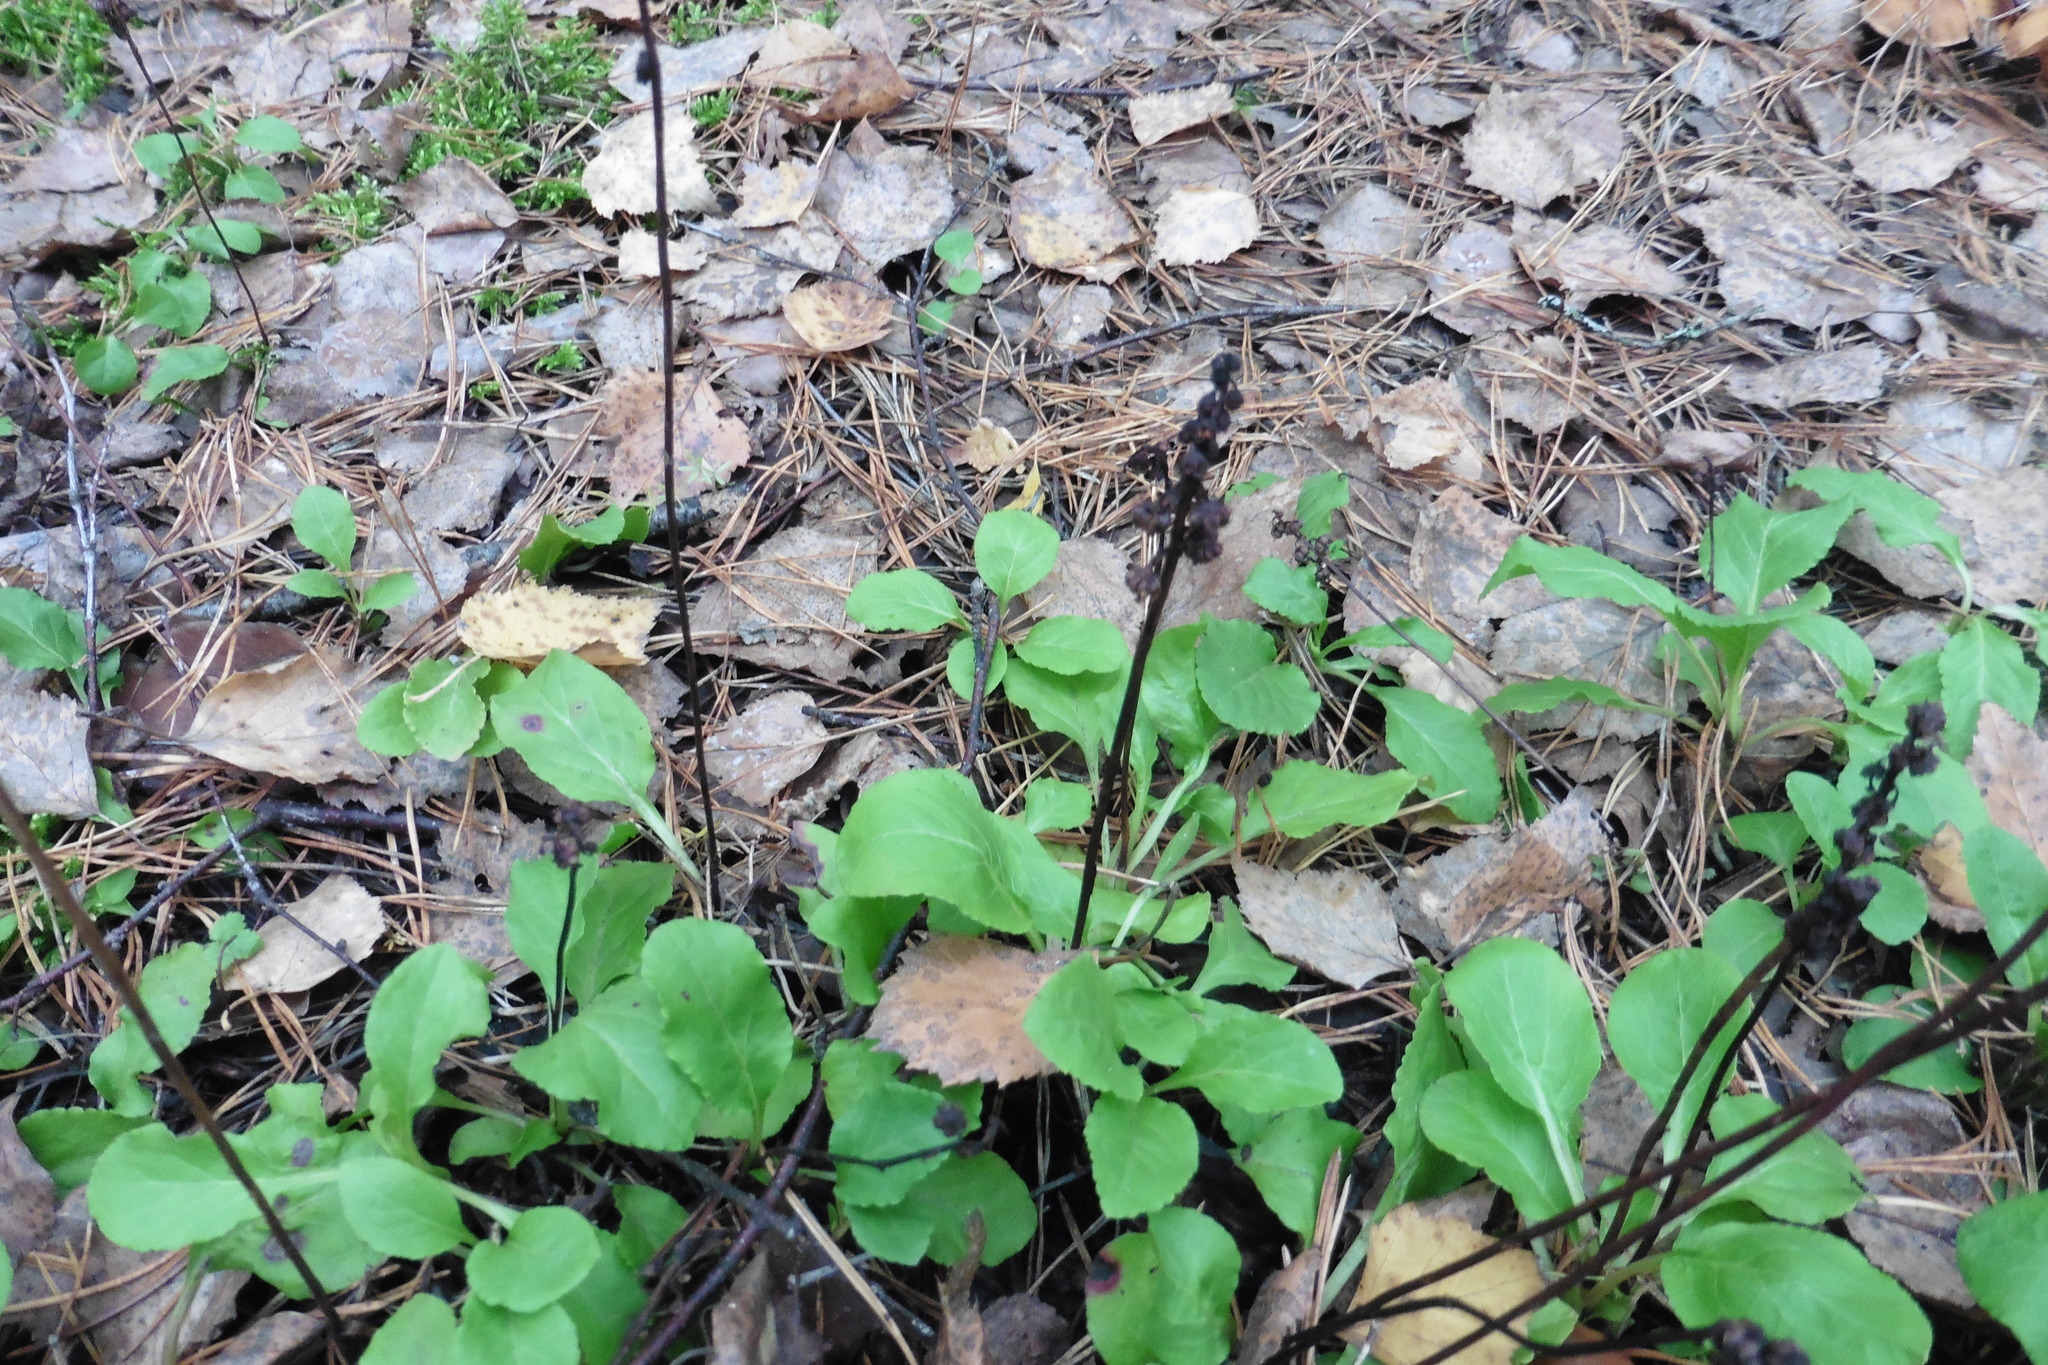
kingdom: Plantae
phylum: Tracheophyta
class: Magnoliopsida
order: Ericales
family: Ericaceae
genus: Pyrola
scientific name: Pyrola minor
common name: Common wintergreen
